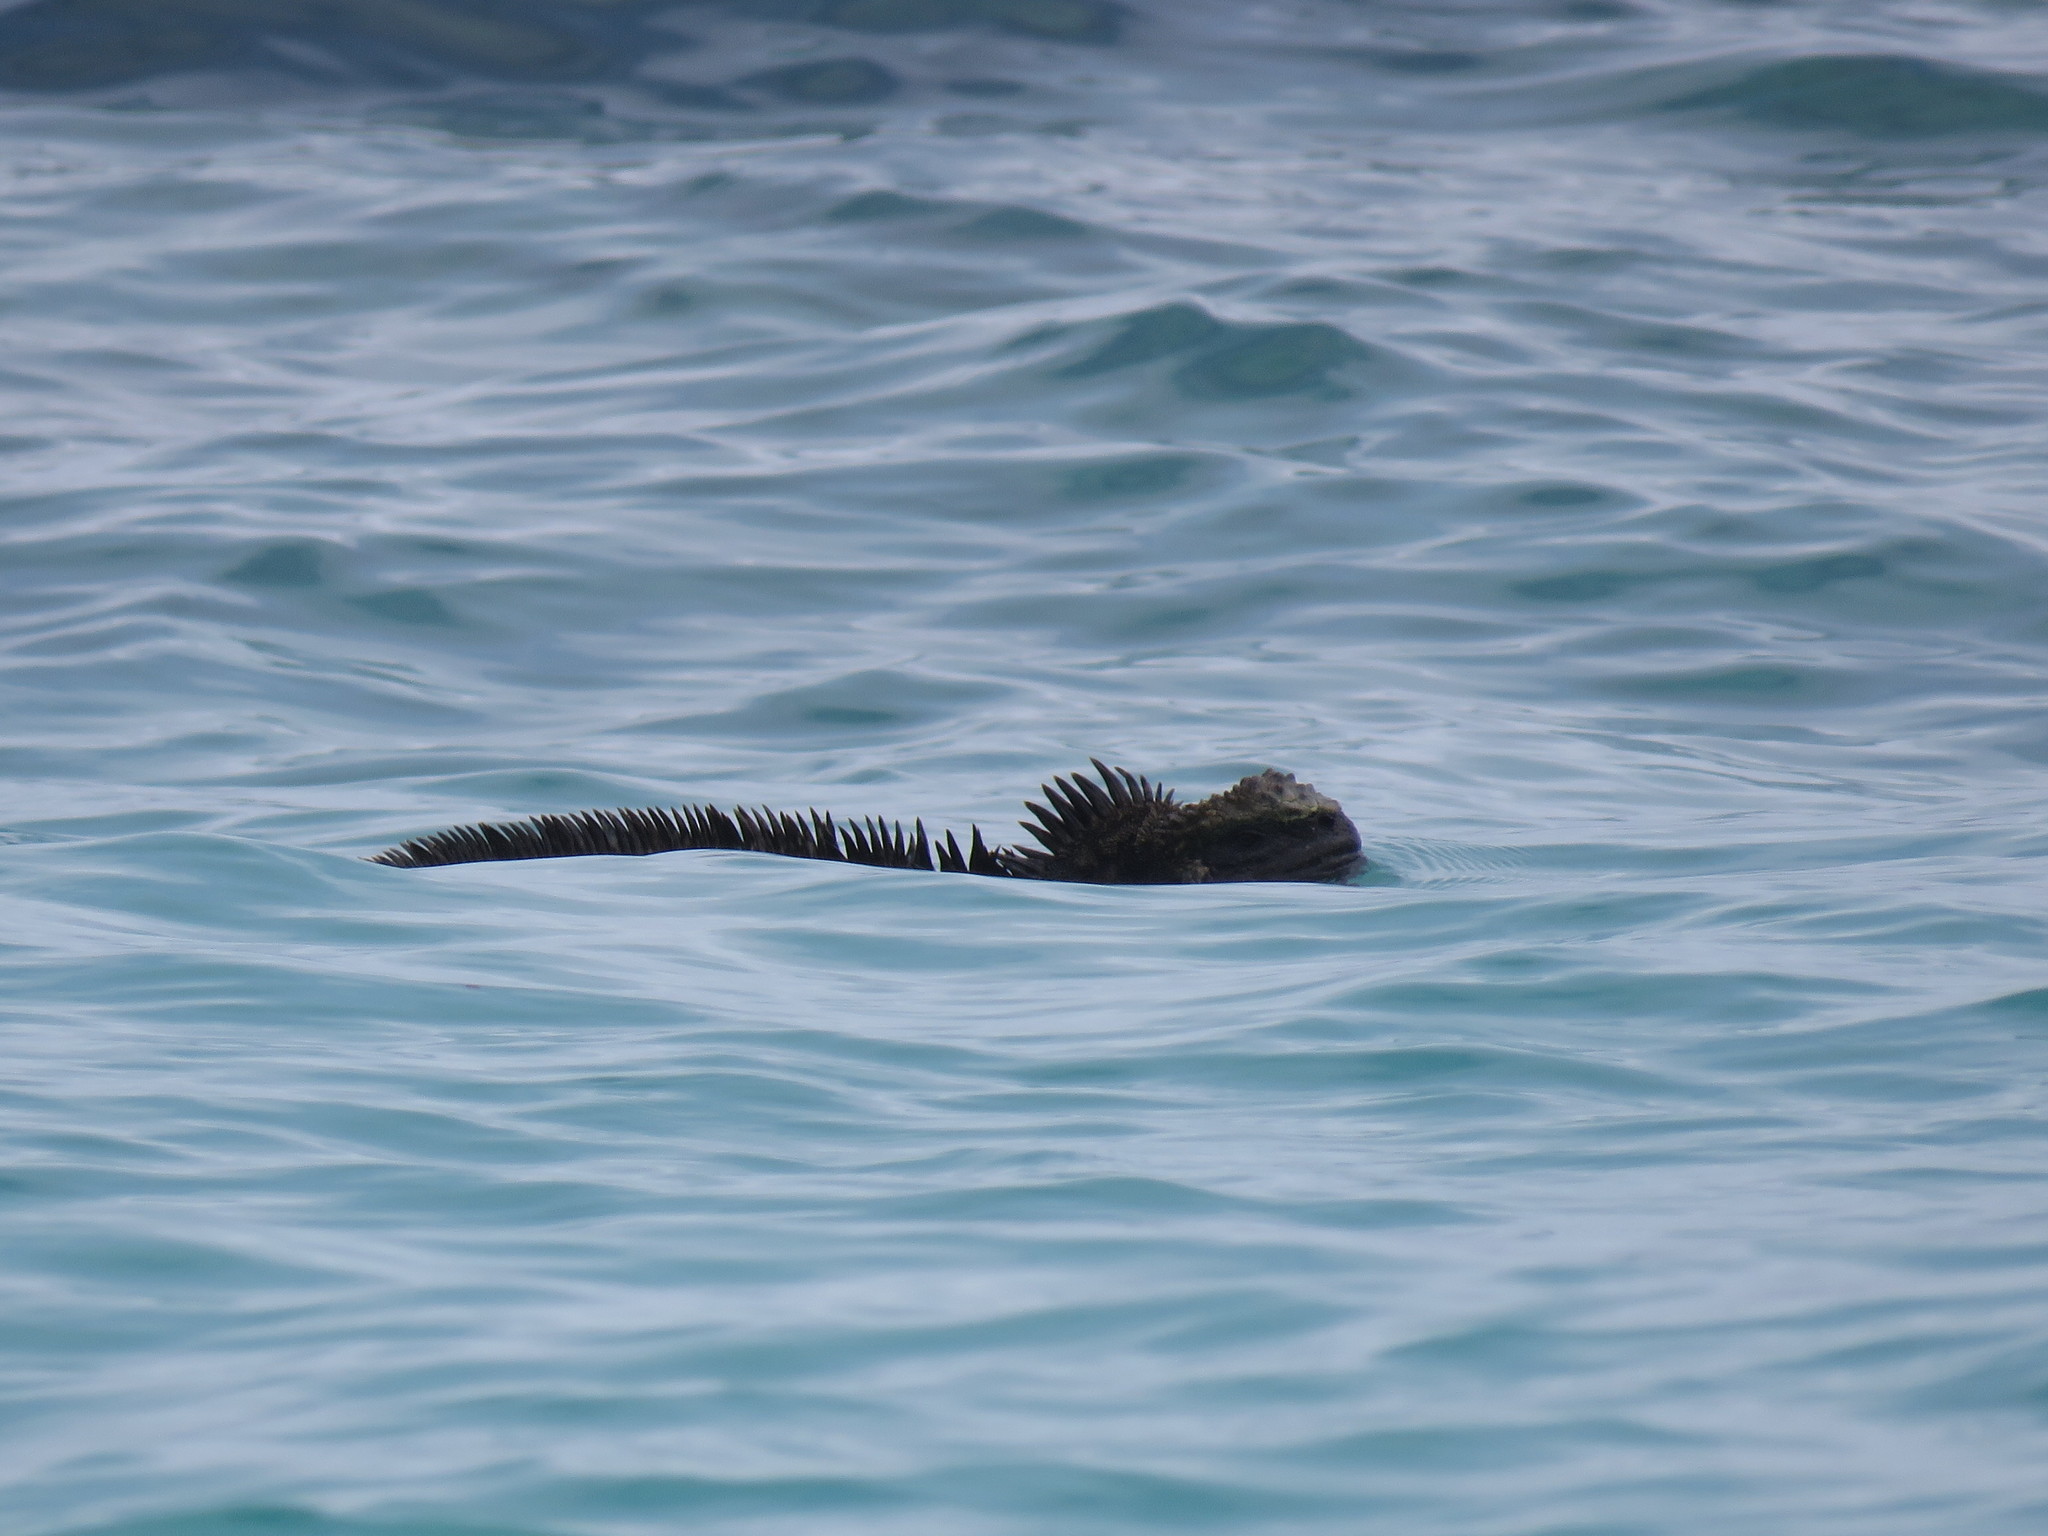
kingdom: Animalia
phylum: Chordata
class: Squamata
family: Iguanidae
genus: Amblyrhynchus
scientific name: Amblyrhynchus cristatus
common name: Marine iguana
